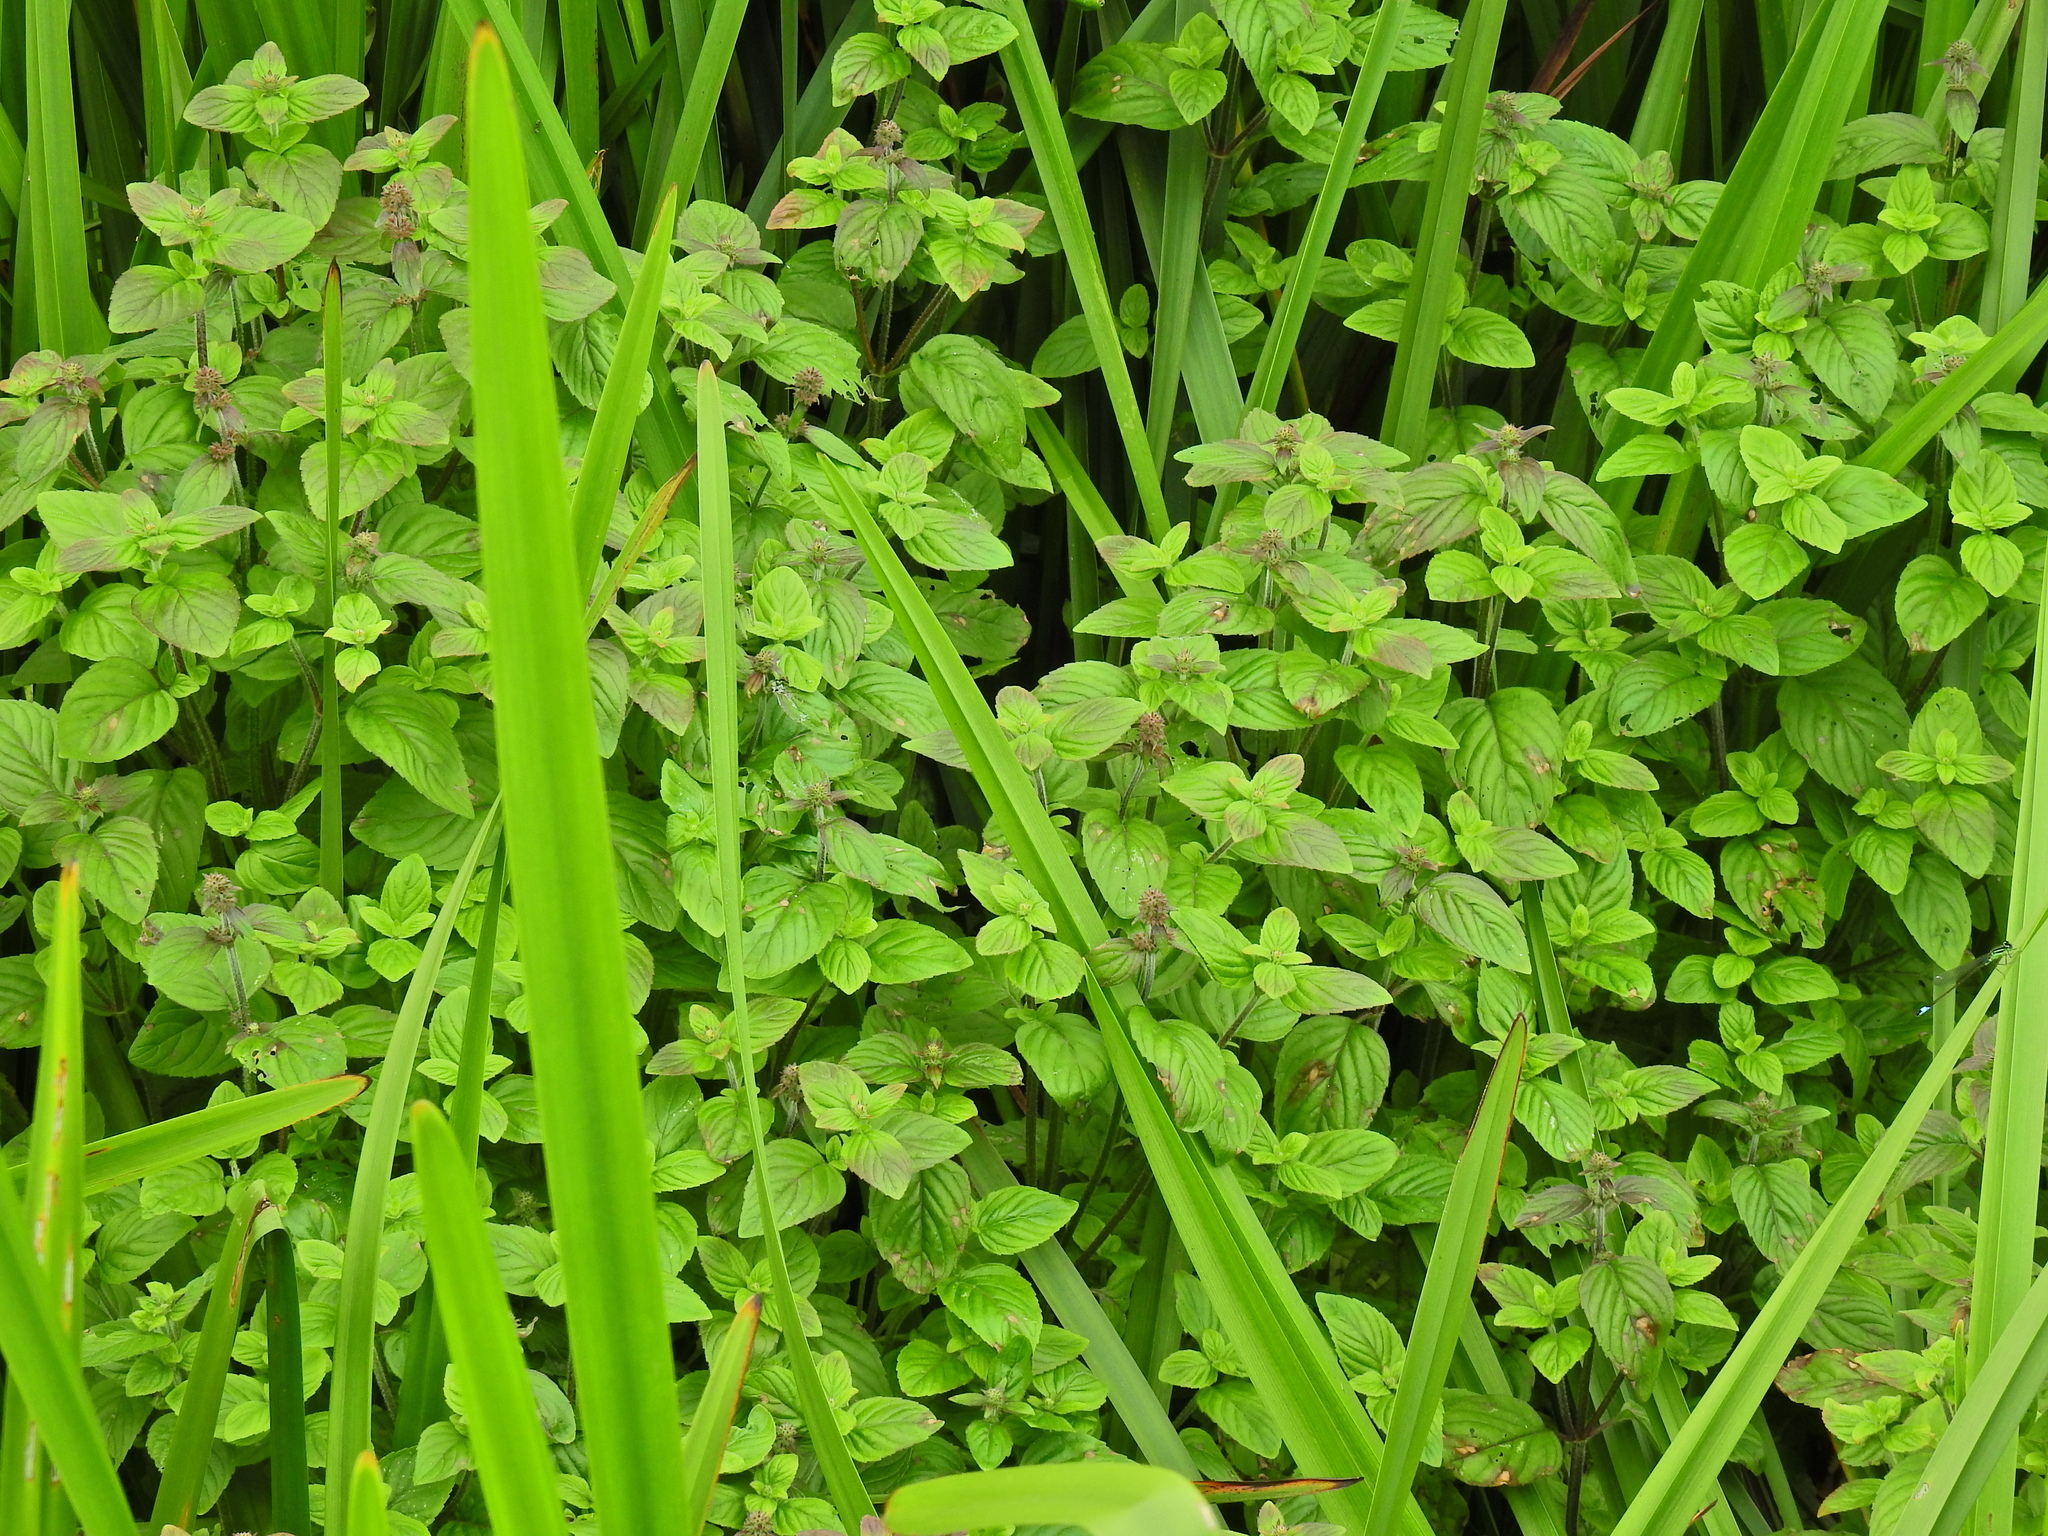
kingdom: Plantae
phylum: Tracheophyta
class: Magnoliopsida
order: Lamiales
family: Lamiaceae
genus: Mentha
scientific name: Mentha aquatica
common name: Water mint
